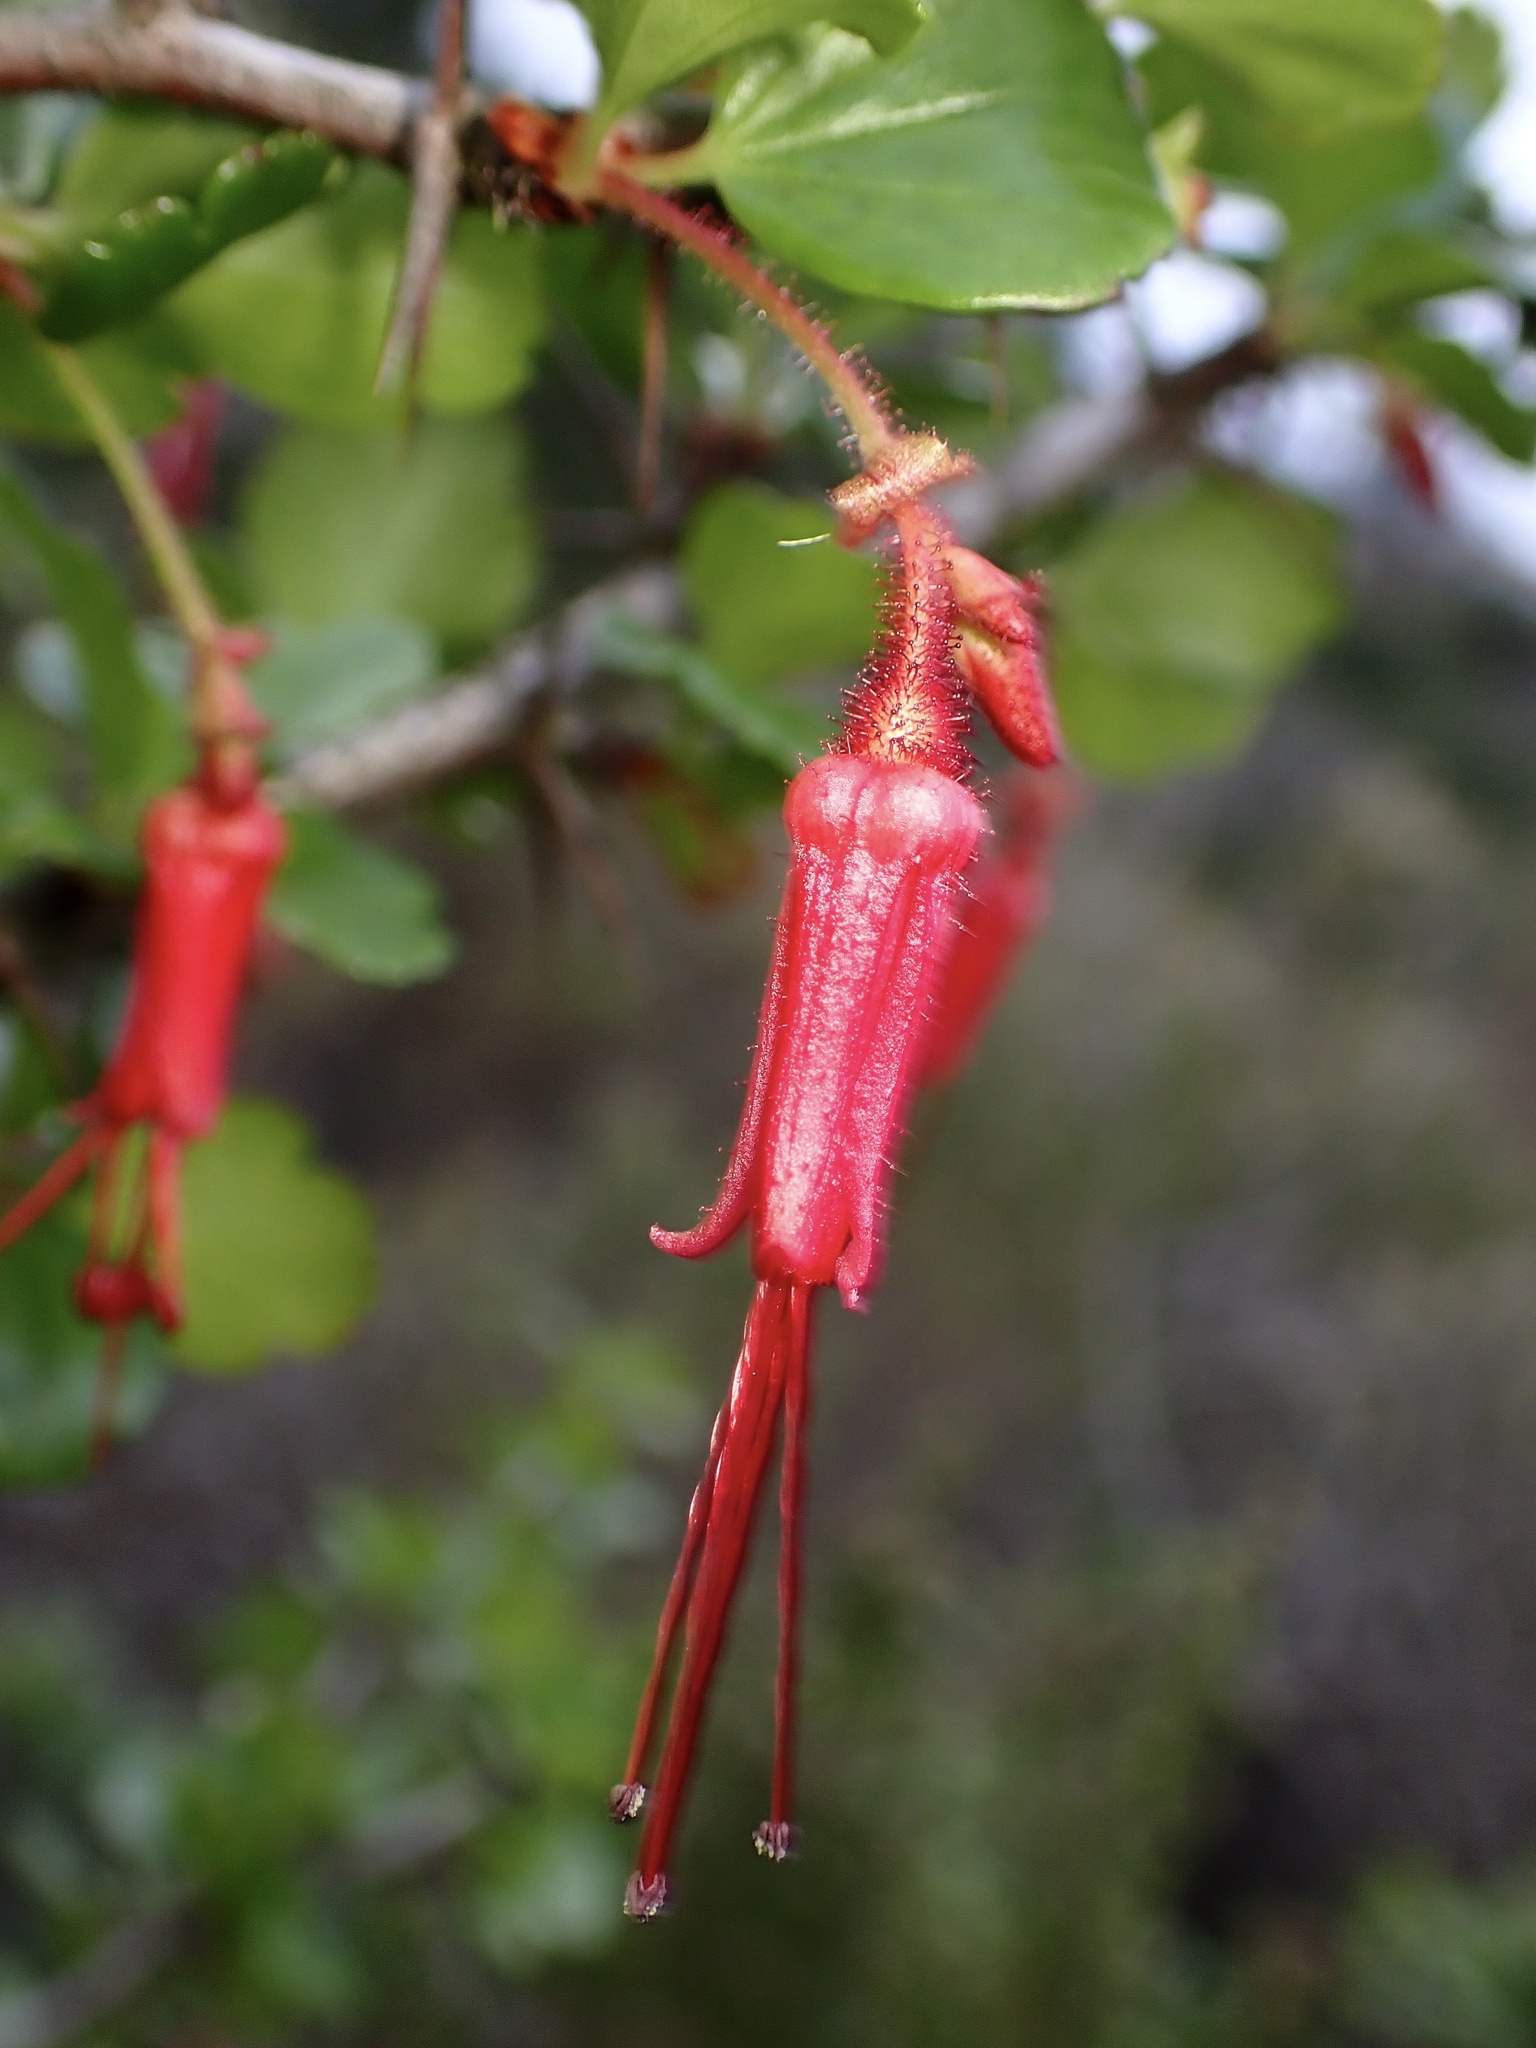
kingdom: Plantae
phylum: Tracheophyta
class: Magnoliopsida
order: Saxifragales
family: Grossulariaceae
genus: Ribes
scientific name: Ribes speciosum
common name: Fuchsia-flower gooseberry
